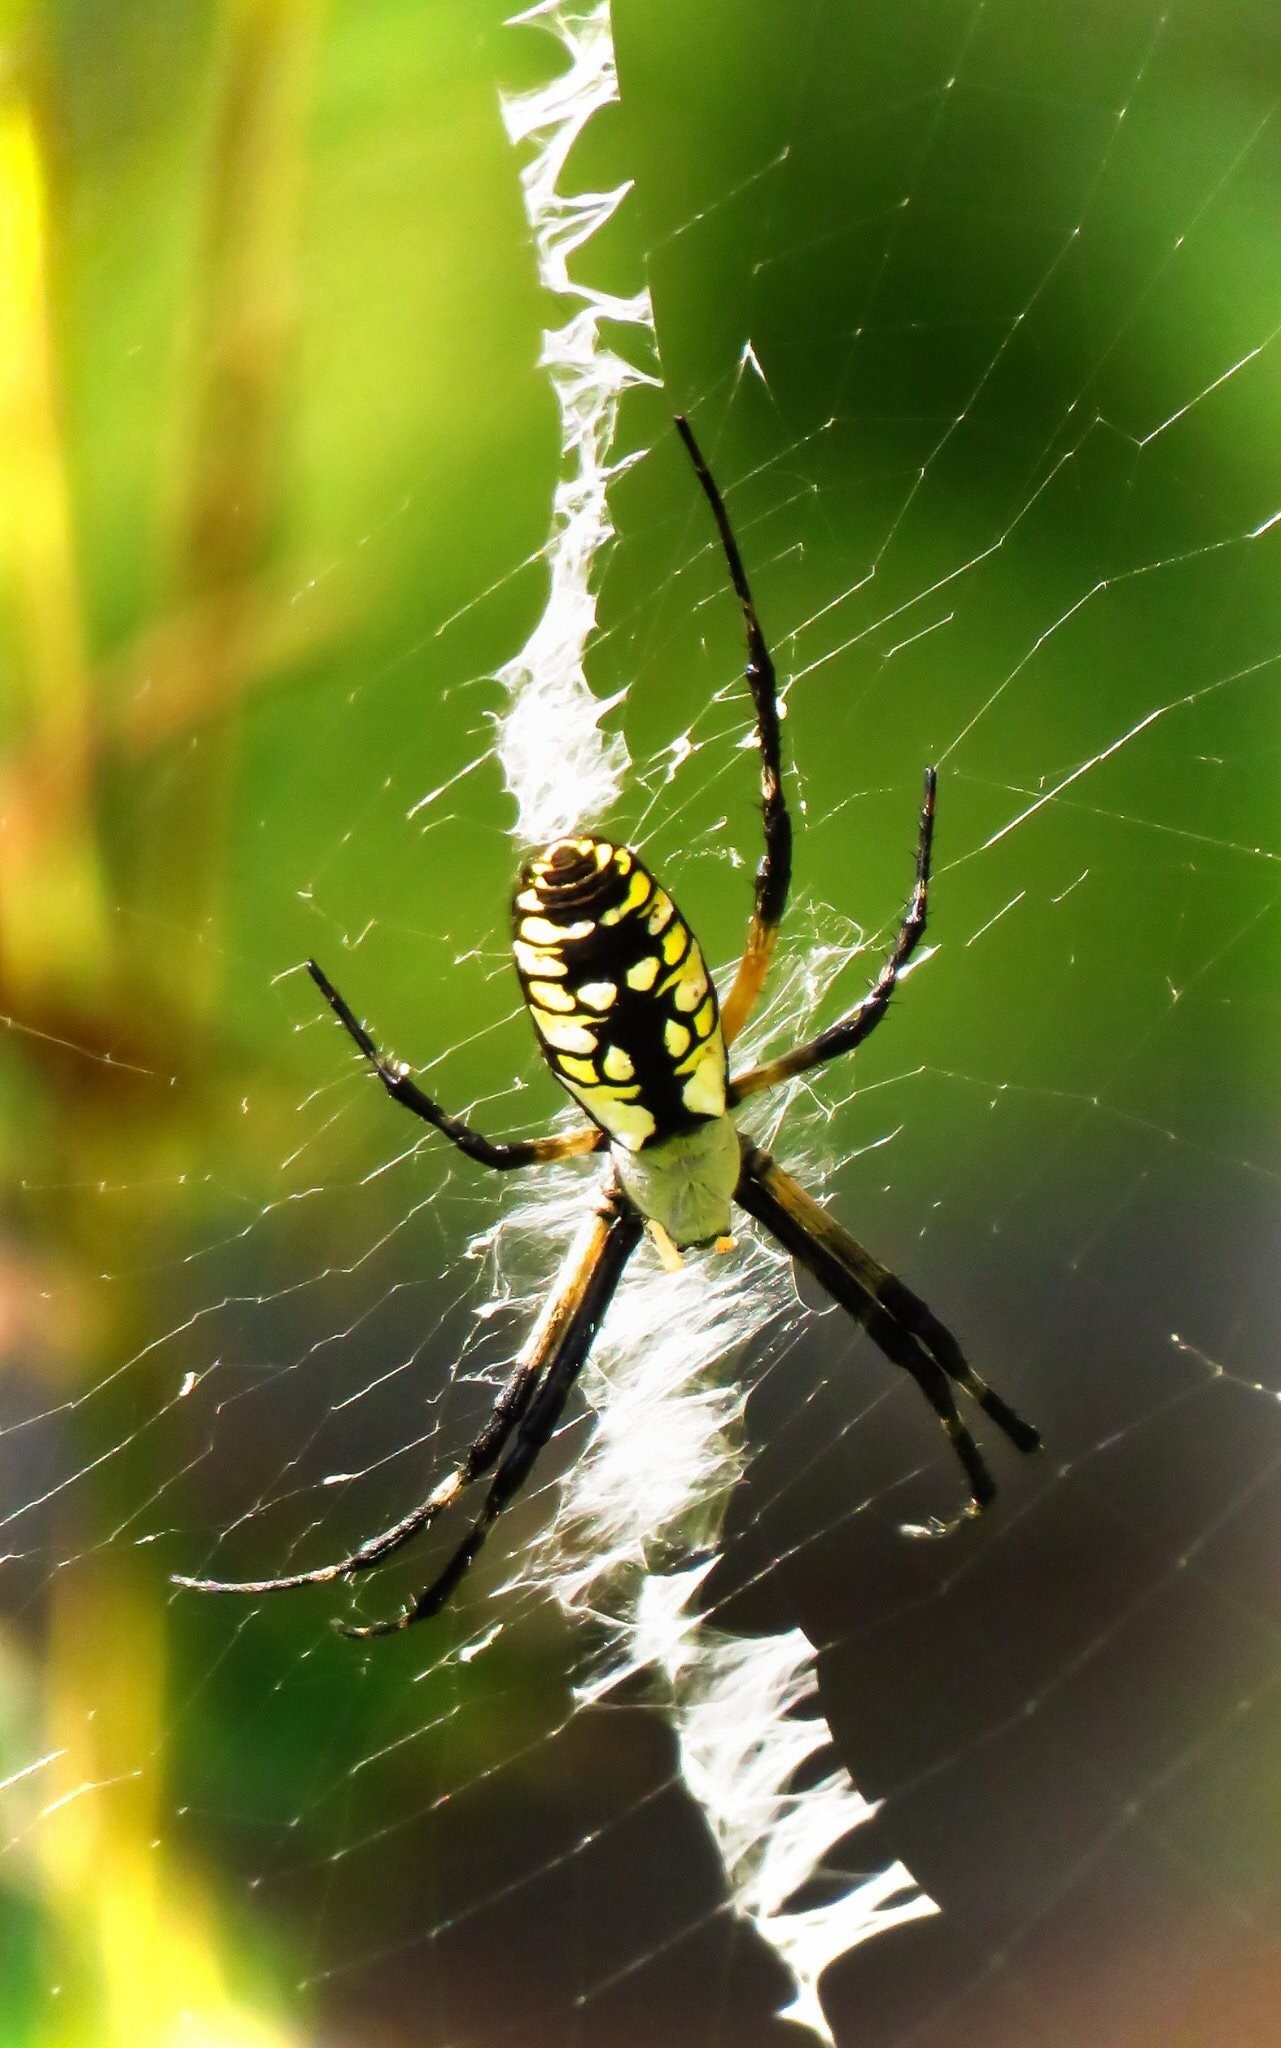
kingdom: Animalia
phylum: Arthropoda
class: Arachnida
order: Araneae
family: Araneidae
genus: Argiope
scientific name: Argiope aurantia
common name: Orb weavers
